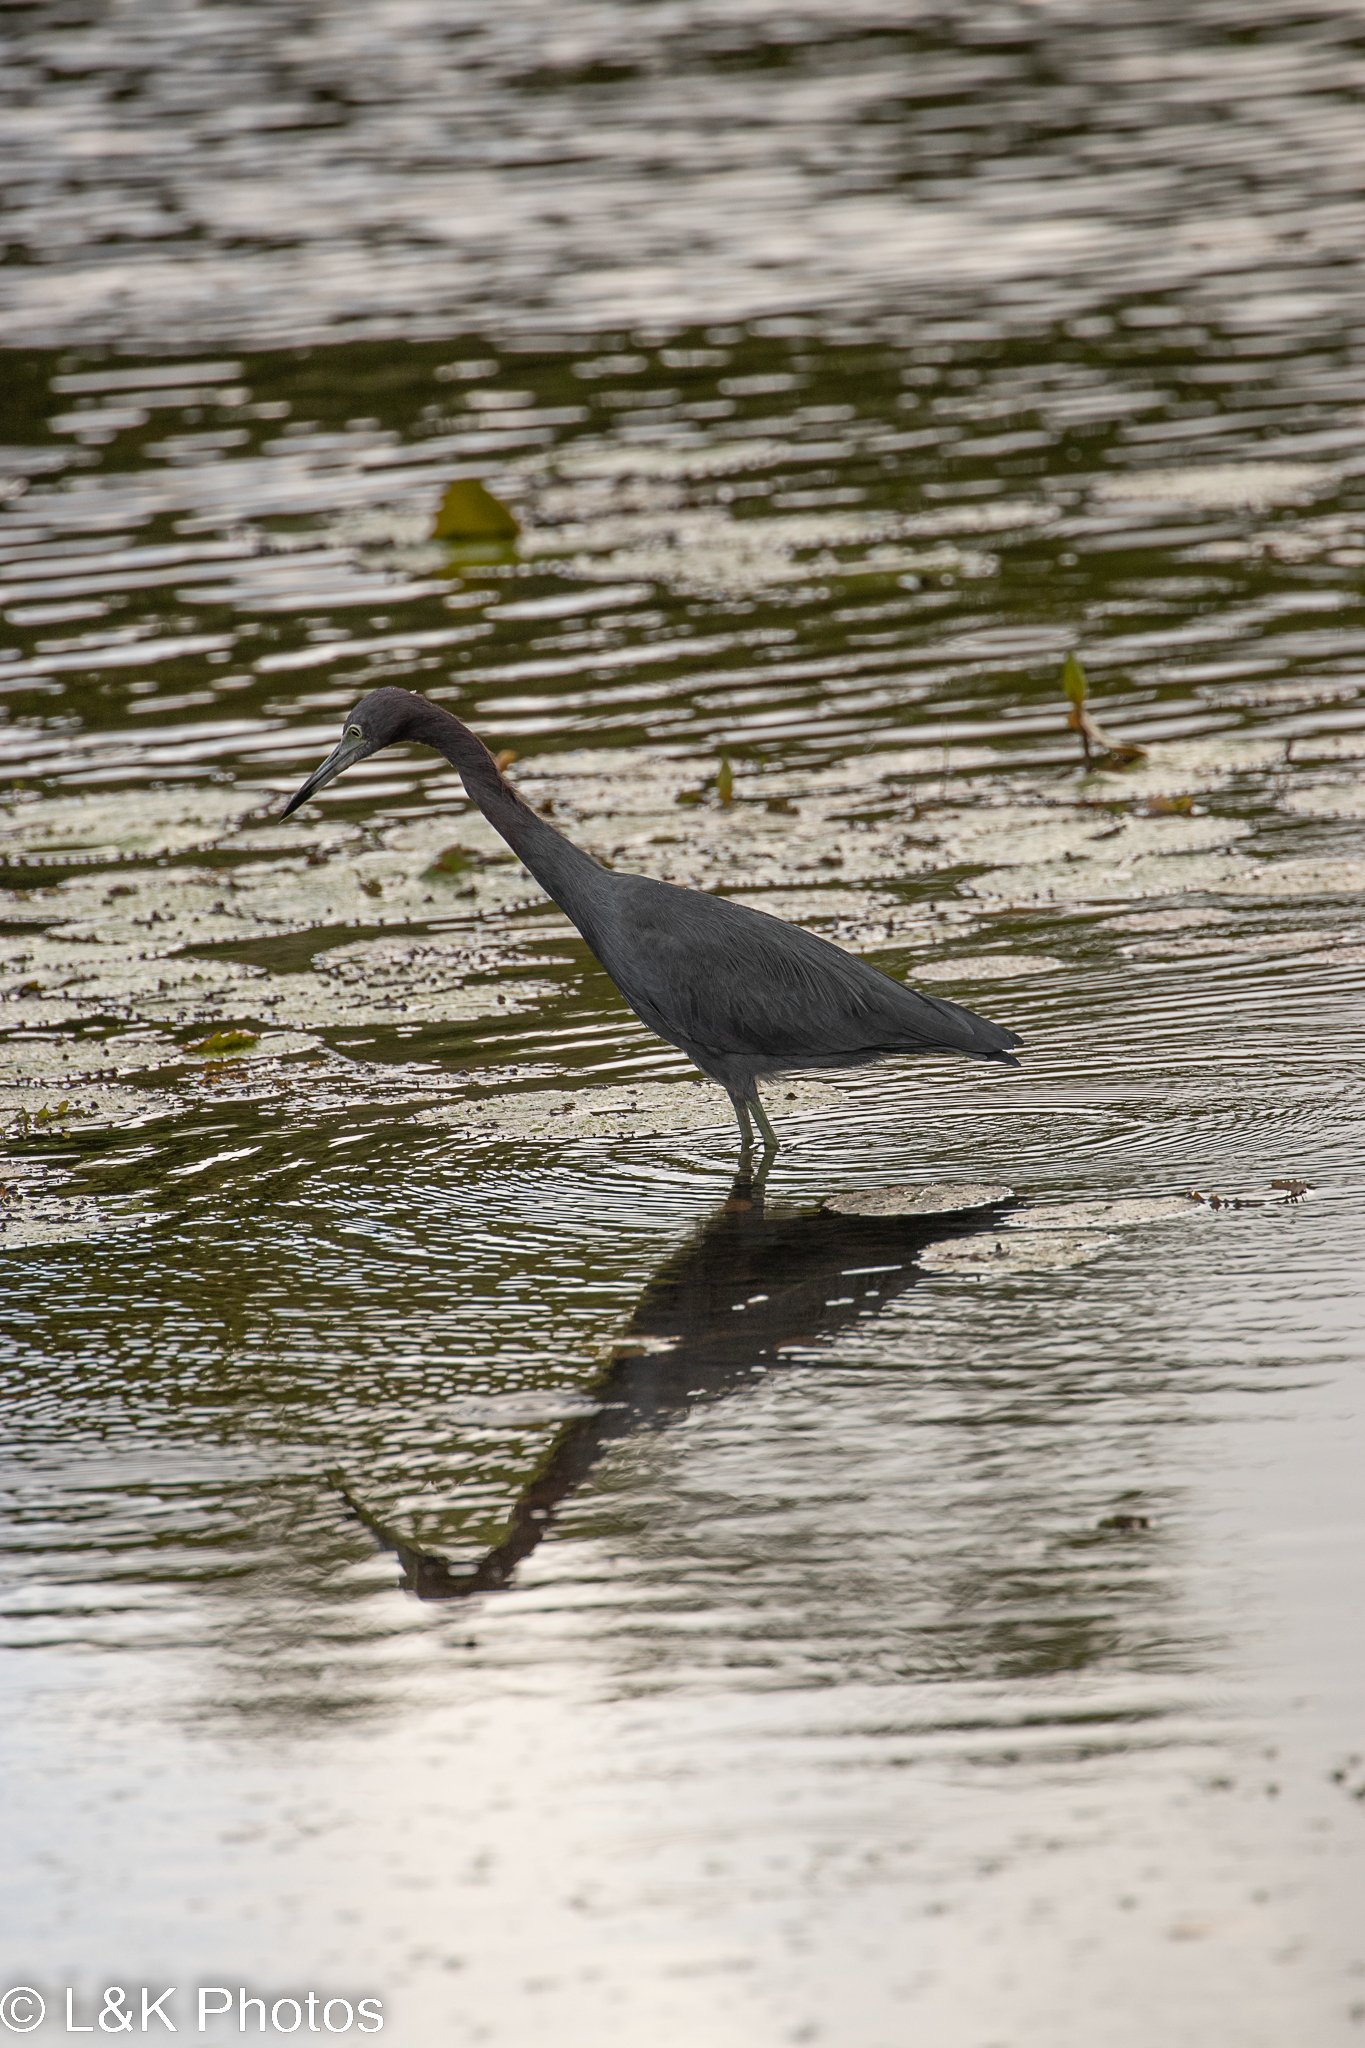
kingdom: Animalia
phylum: Chordata
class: Aves
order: Pelecaniformes
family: Ardeidae
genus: Egretta
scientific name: Egretta caerulea
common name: Little blue heron
